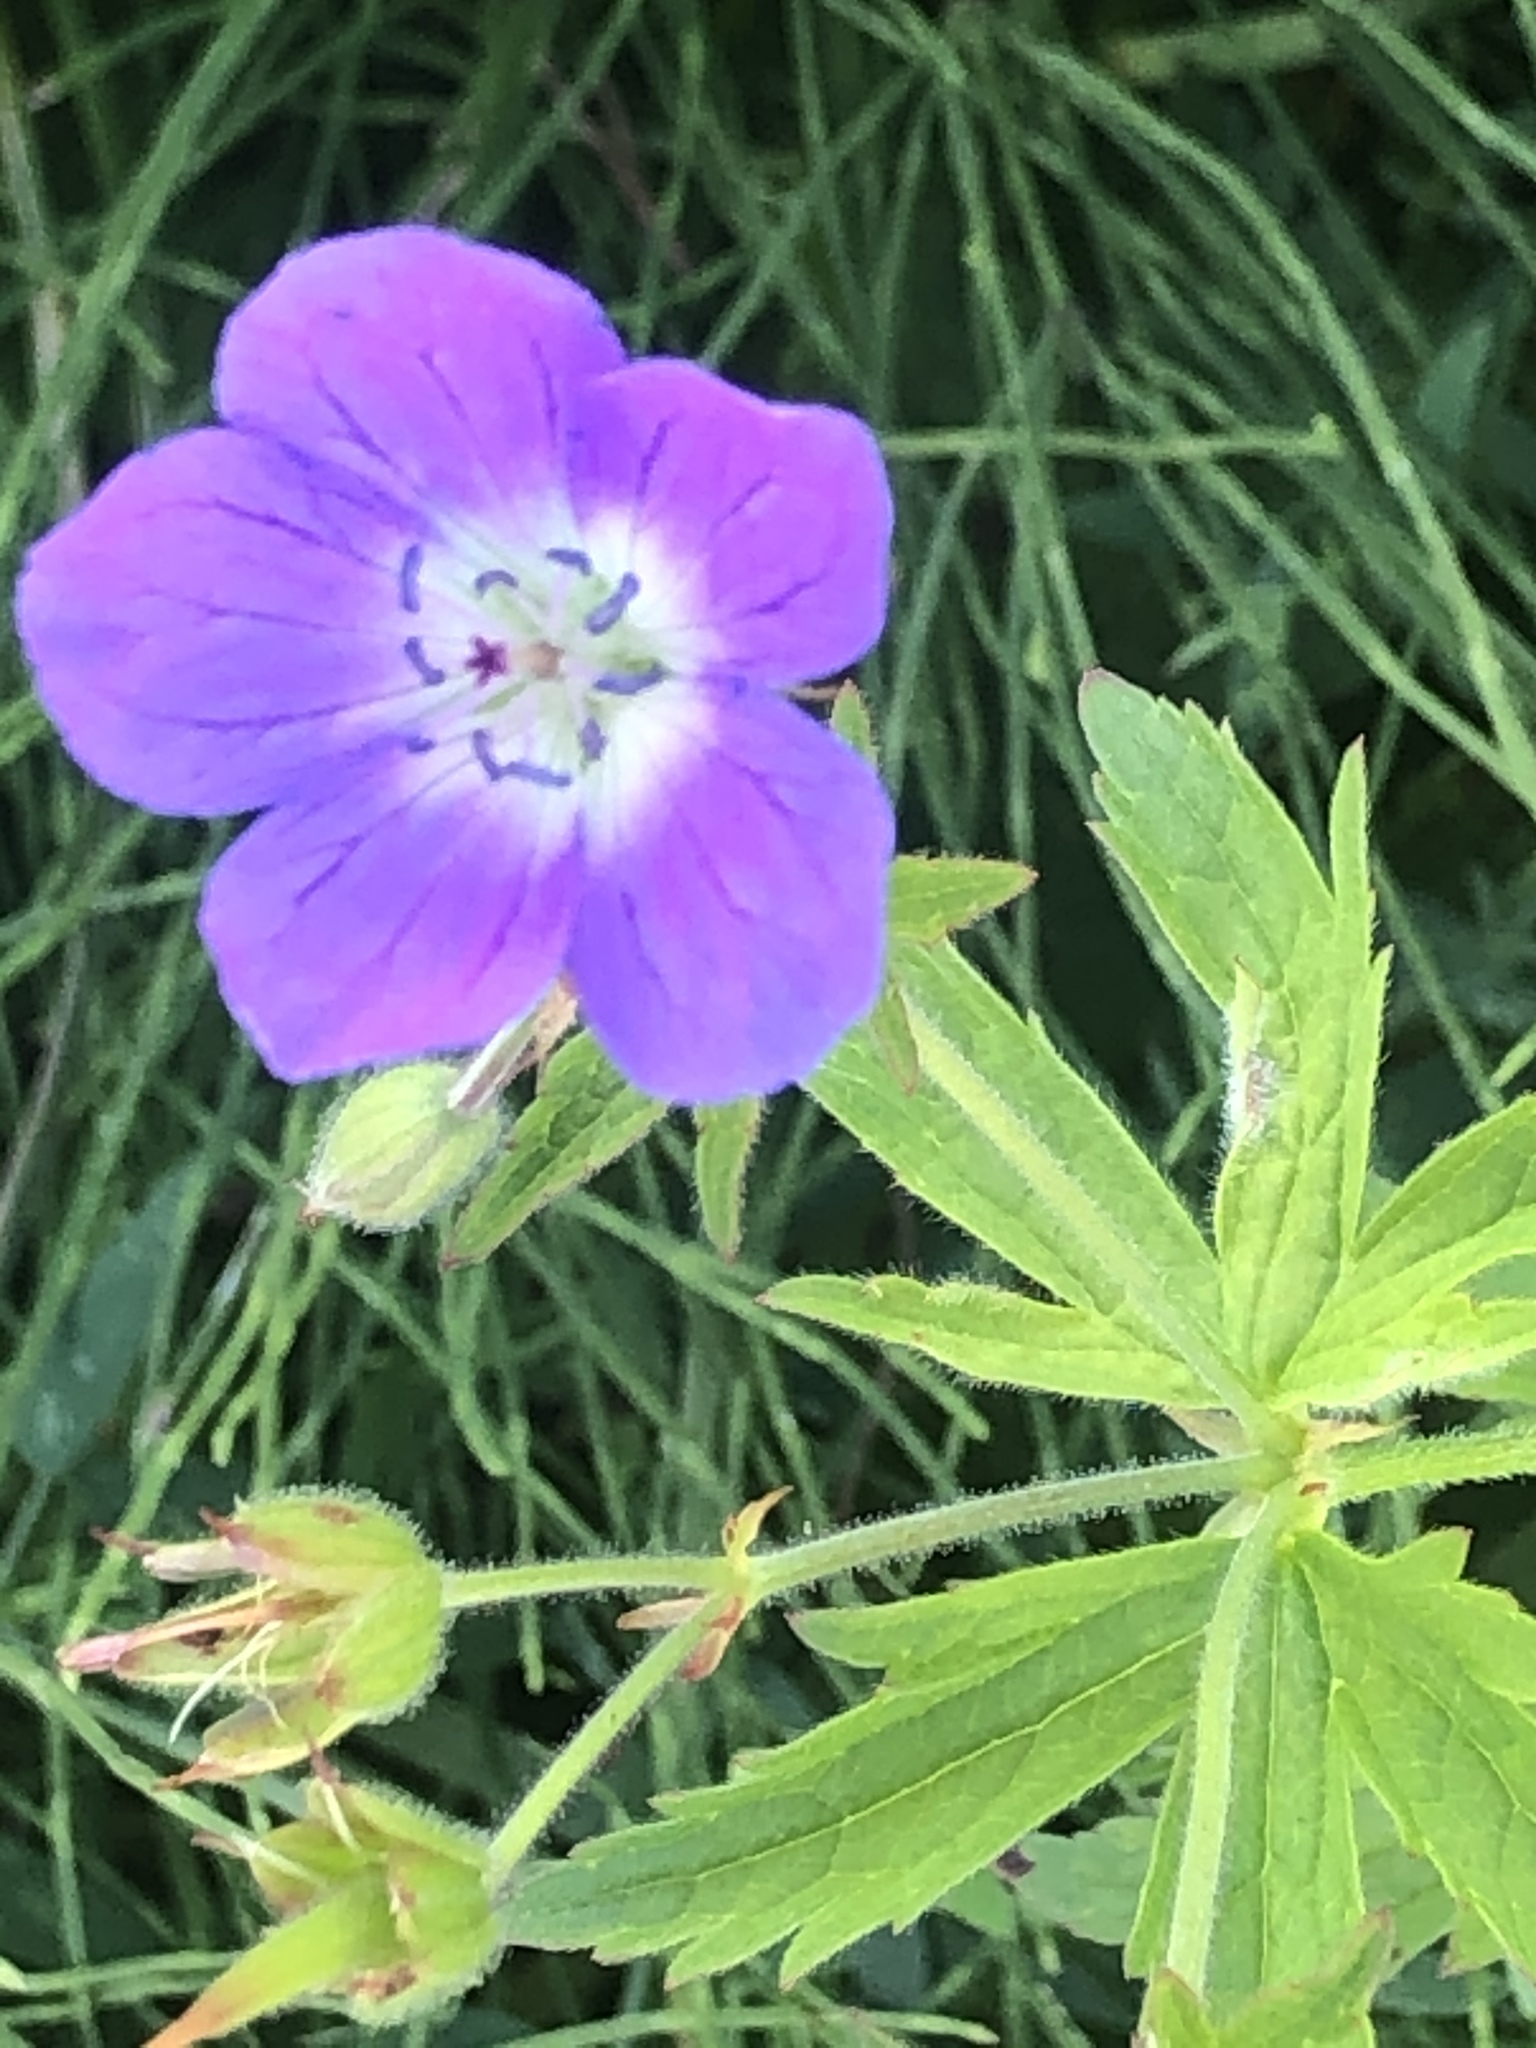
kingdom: Plantae
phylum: Tracheophyta
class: Magnoliopsida
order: Geraniales
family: Geraniaceae
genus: Geranium
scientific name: Geranium sylvaticum
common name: Wood crane's-bill
